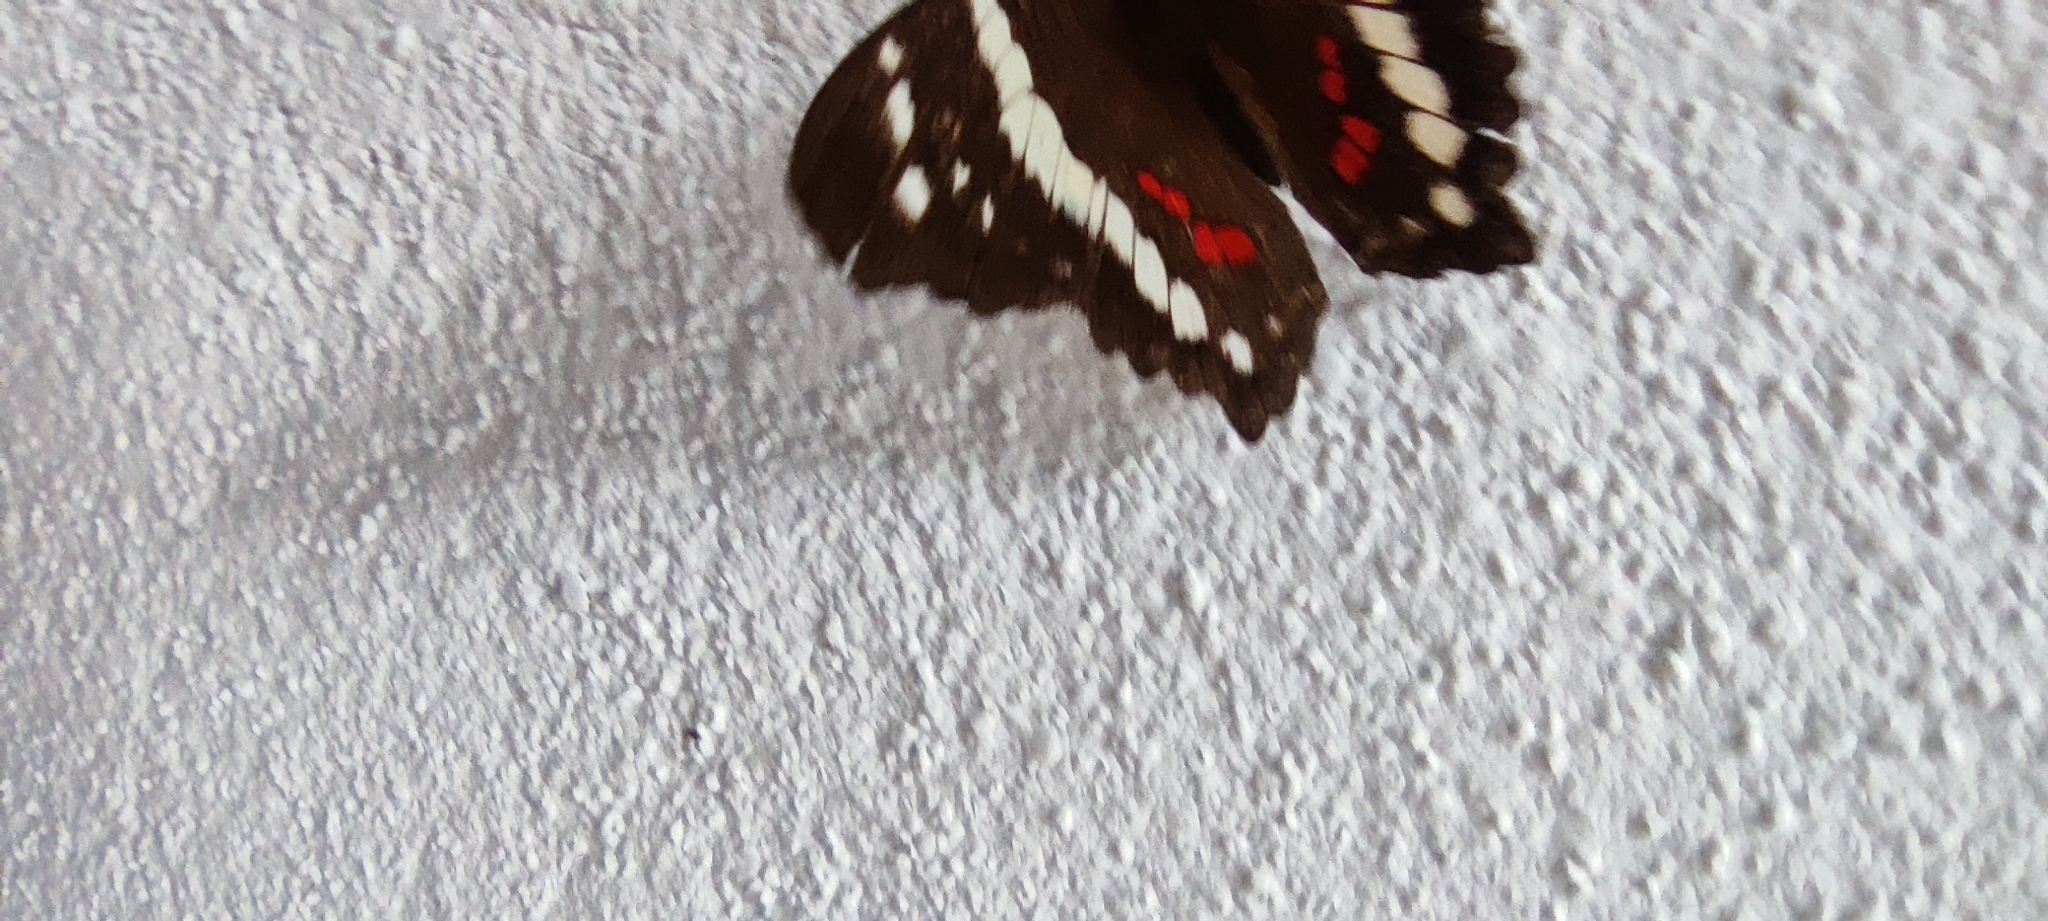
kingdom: Animalia
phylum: Arthropoda
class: Insecta
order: Lepidoptera
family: Nymphalidae
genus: Anartia
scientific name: Anartia fatima
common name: Banded peacock
